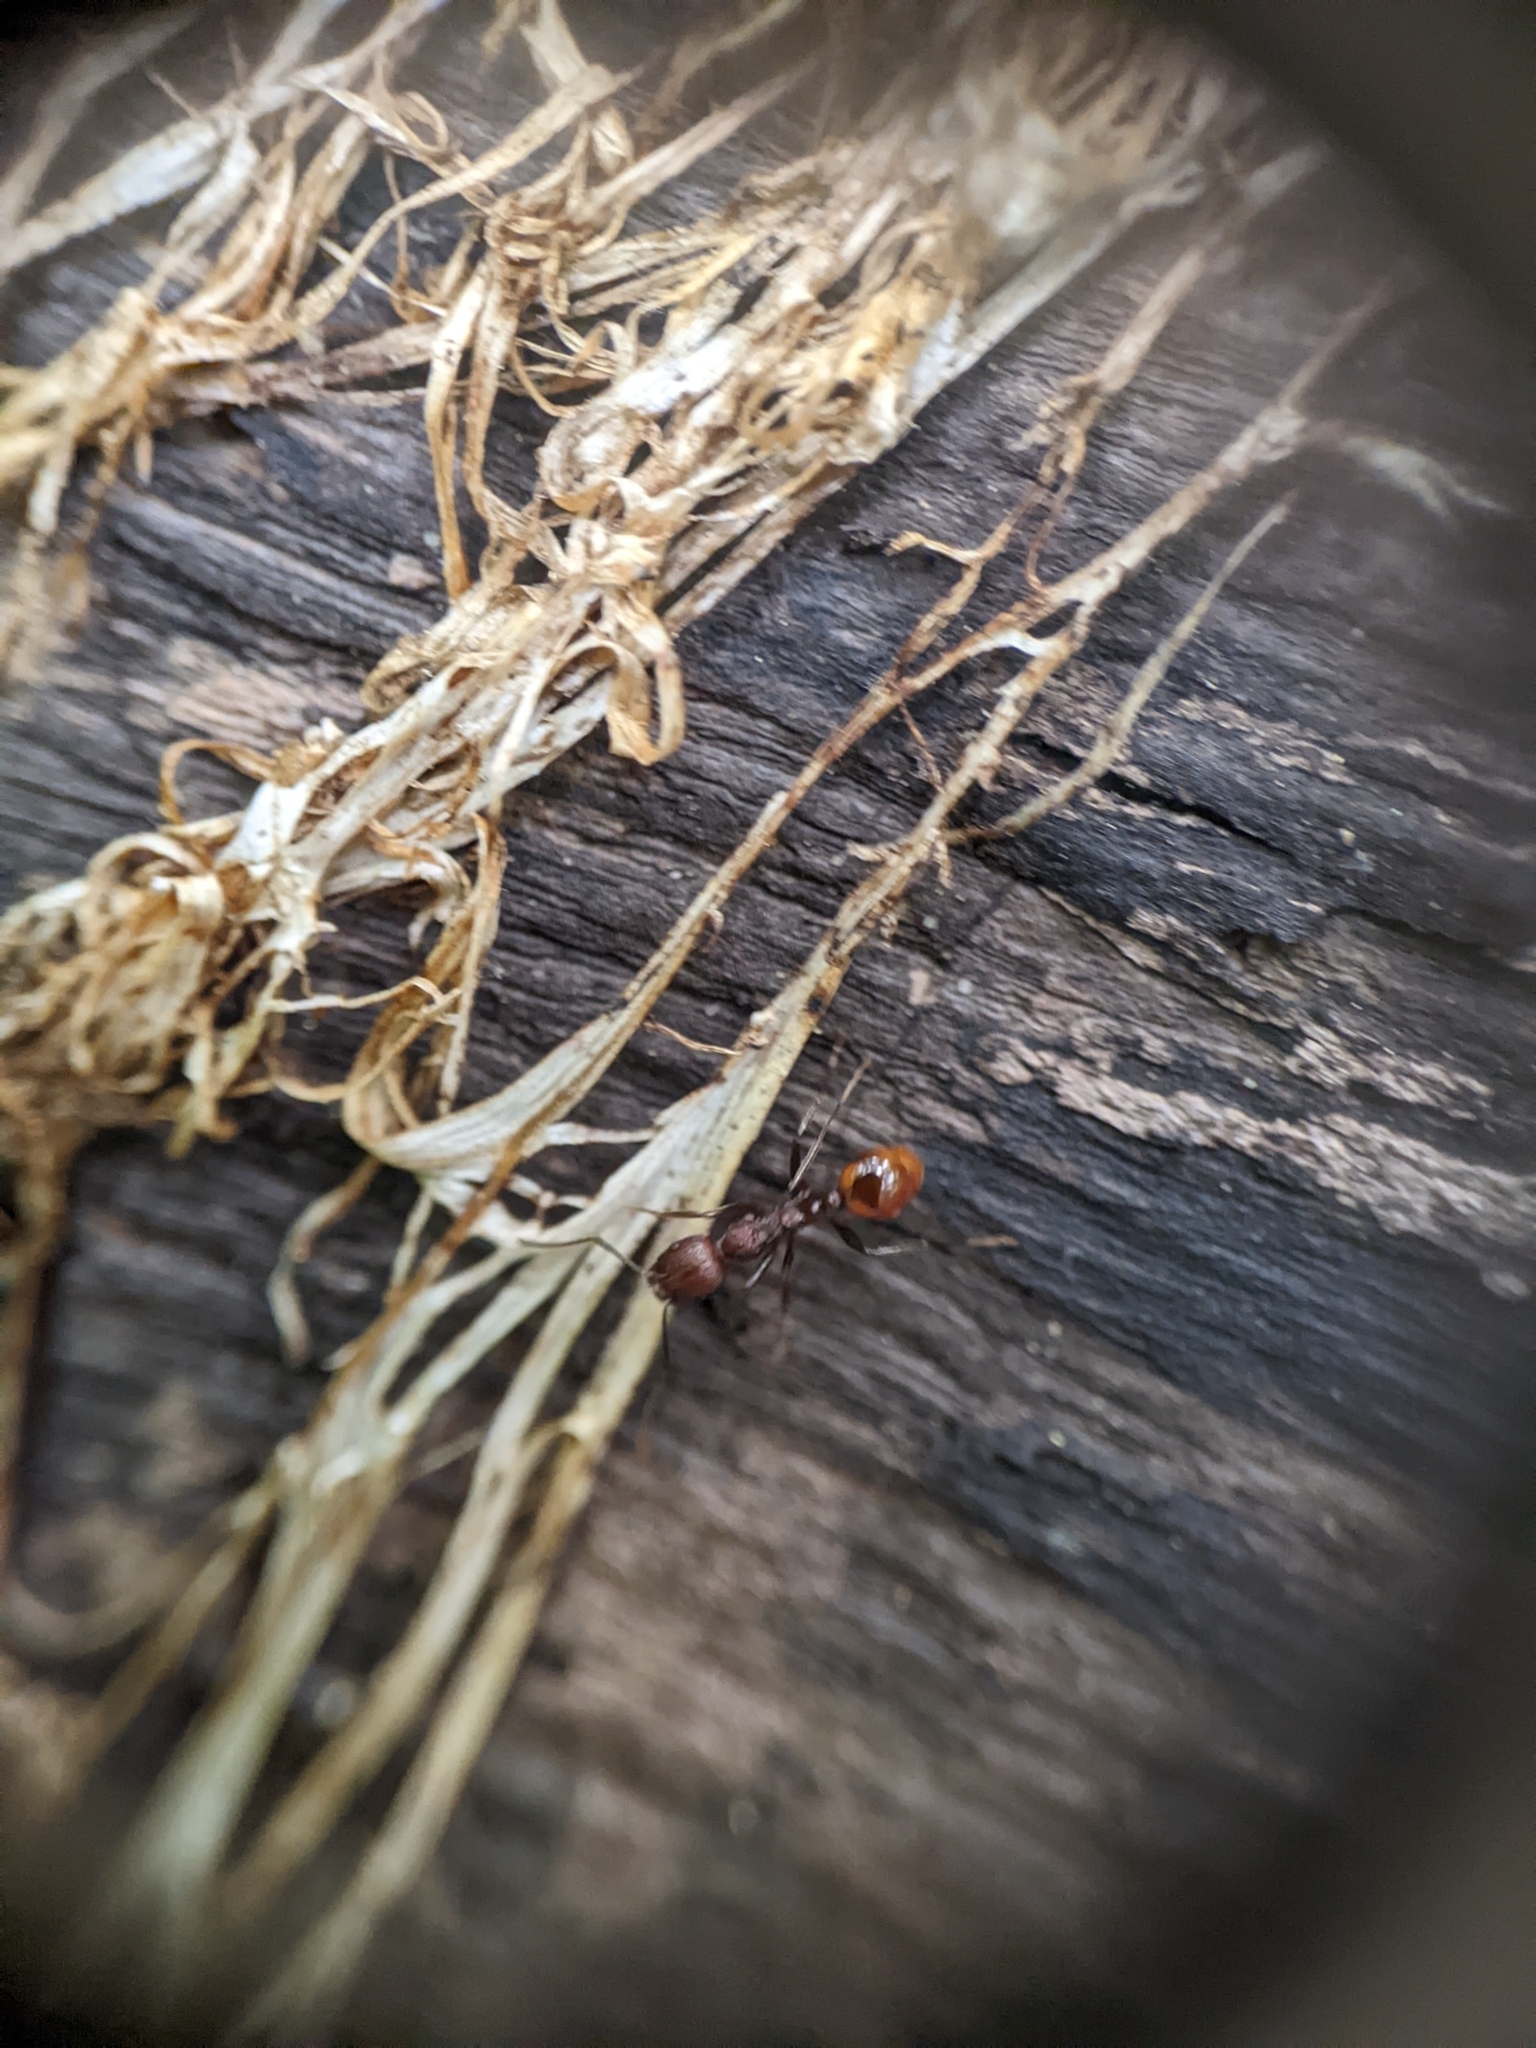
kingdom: Animalia
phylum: Arthropoda
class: Insecta
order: Hymenoptera
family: Formicidae
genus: Aphaenogaster
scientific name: Aphaenogaster tennesseensis
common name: Tennessee thread-waisted ant
